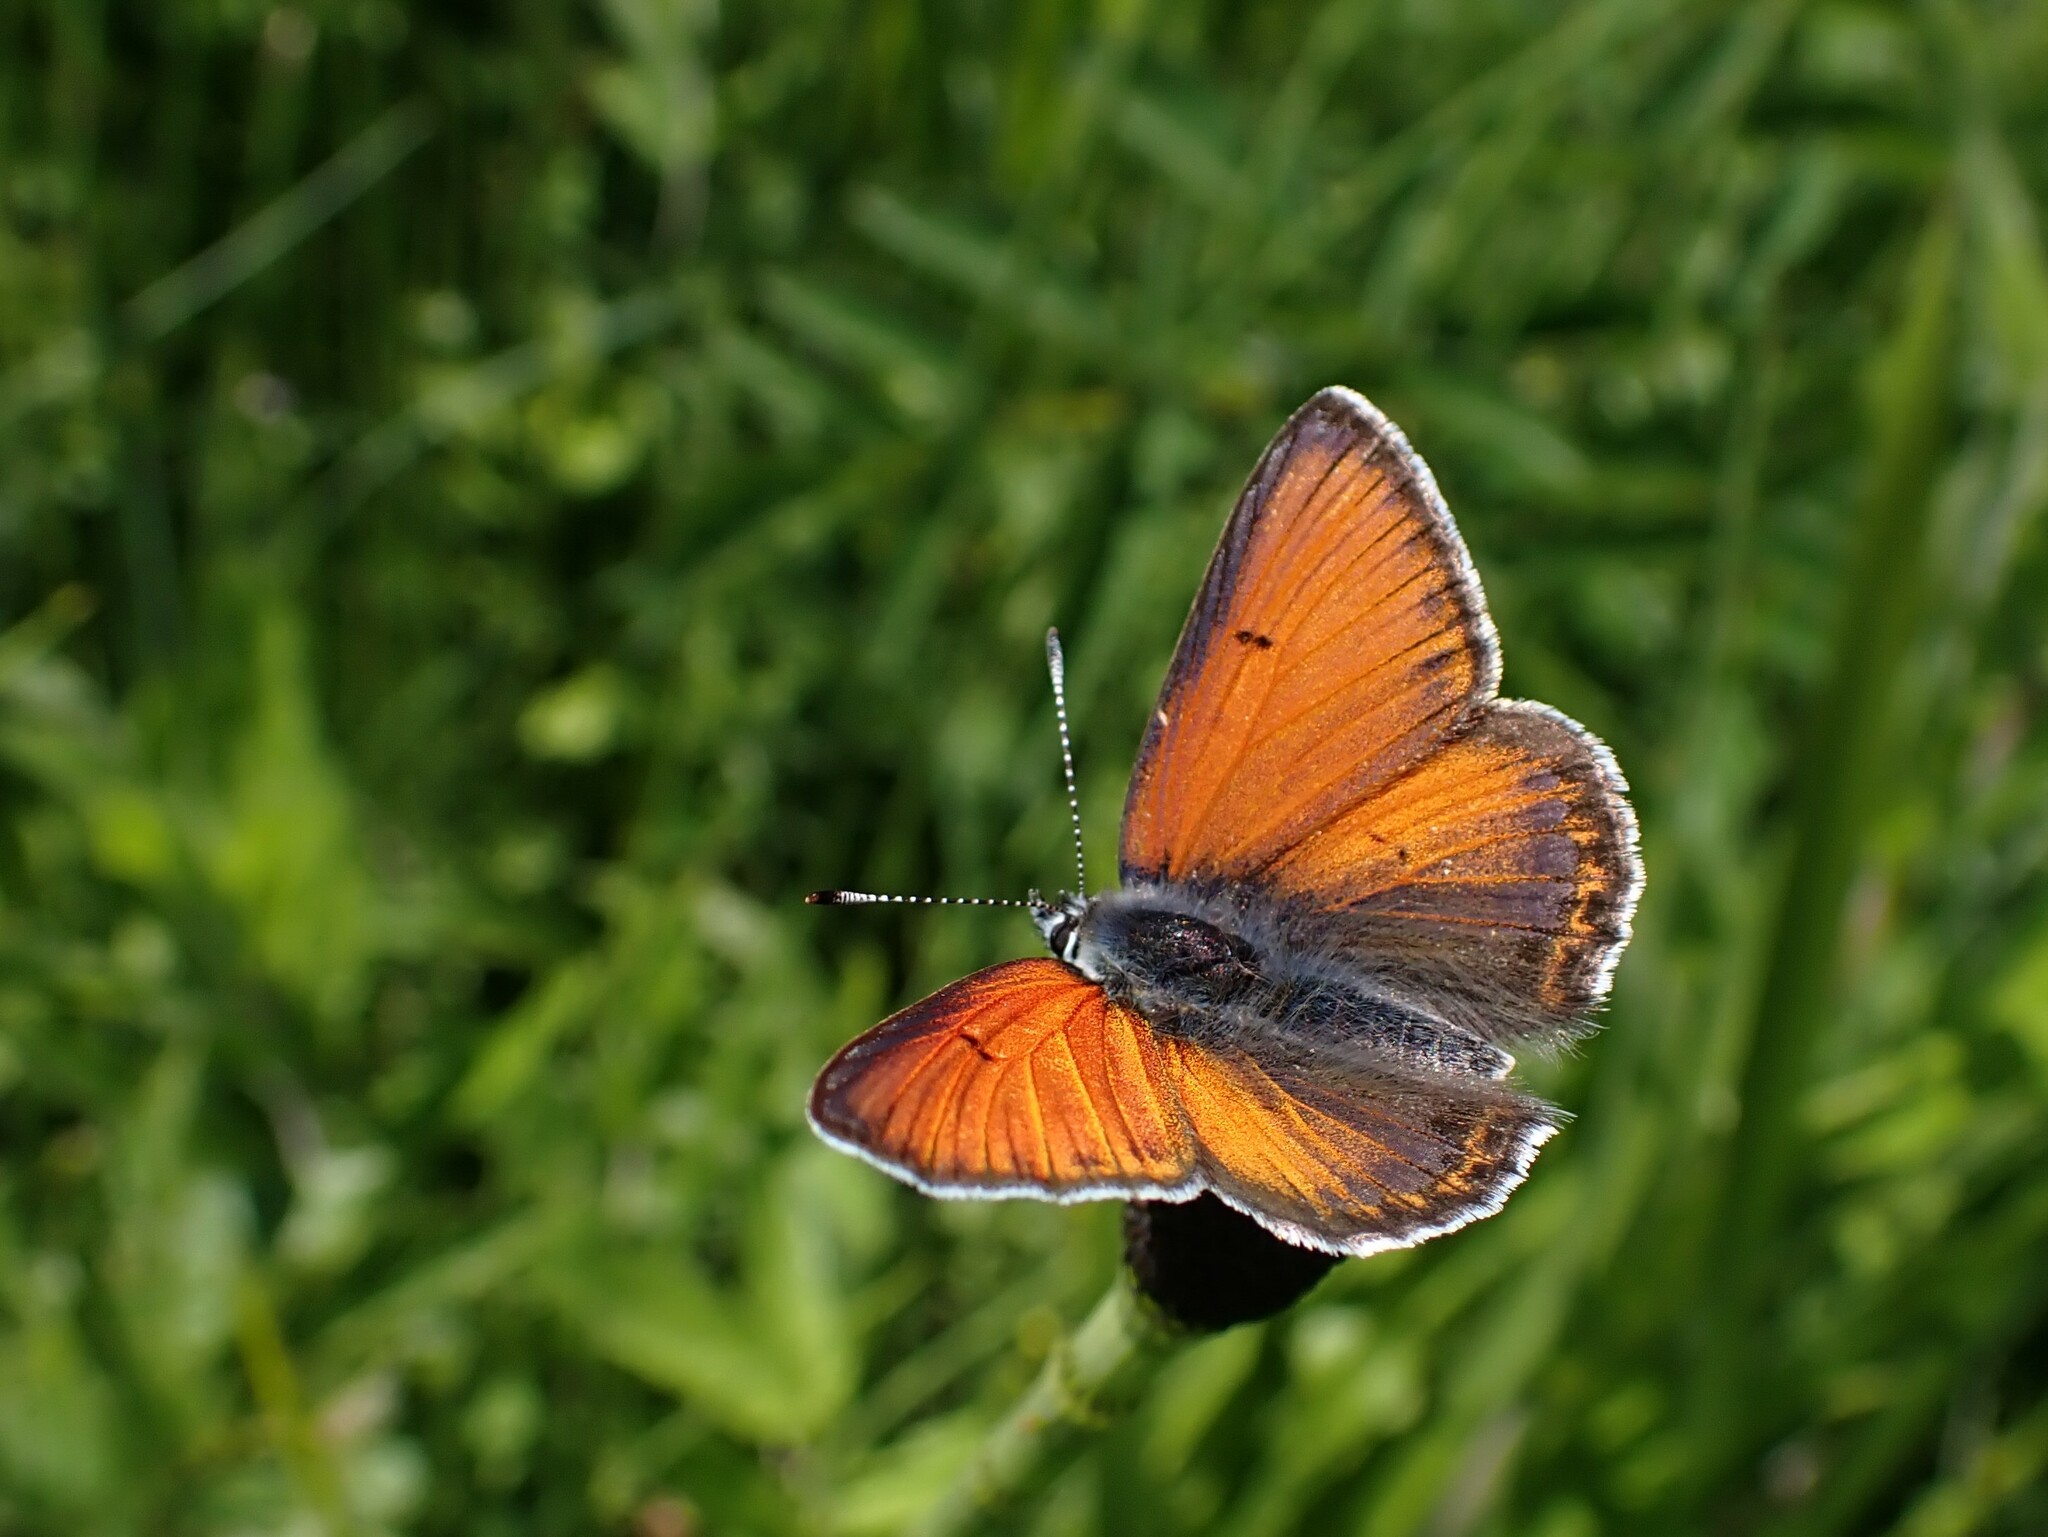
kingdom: Animalia
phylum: Arthropoda
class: Insecta
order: Lepidoptera
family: Lycaenidae
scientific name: Lycaenidae
